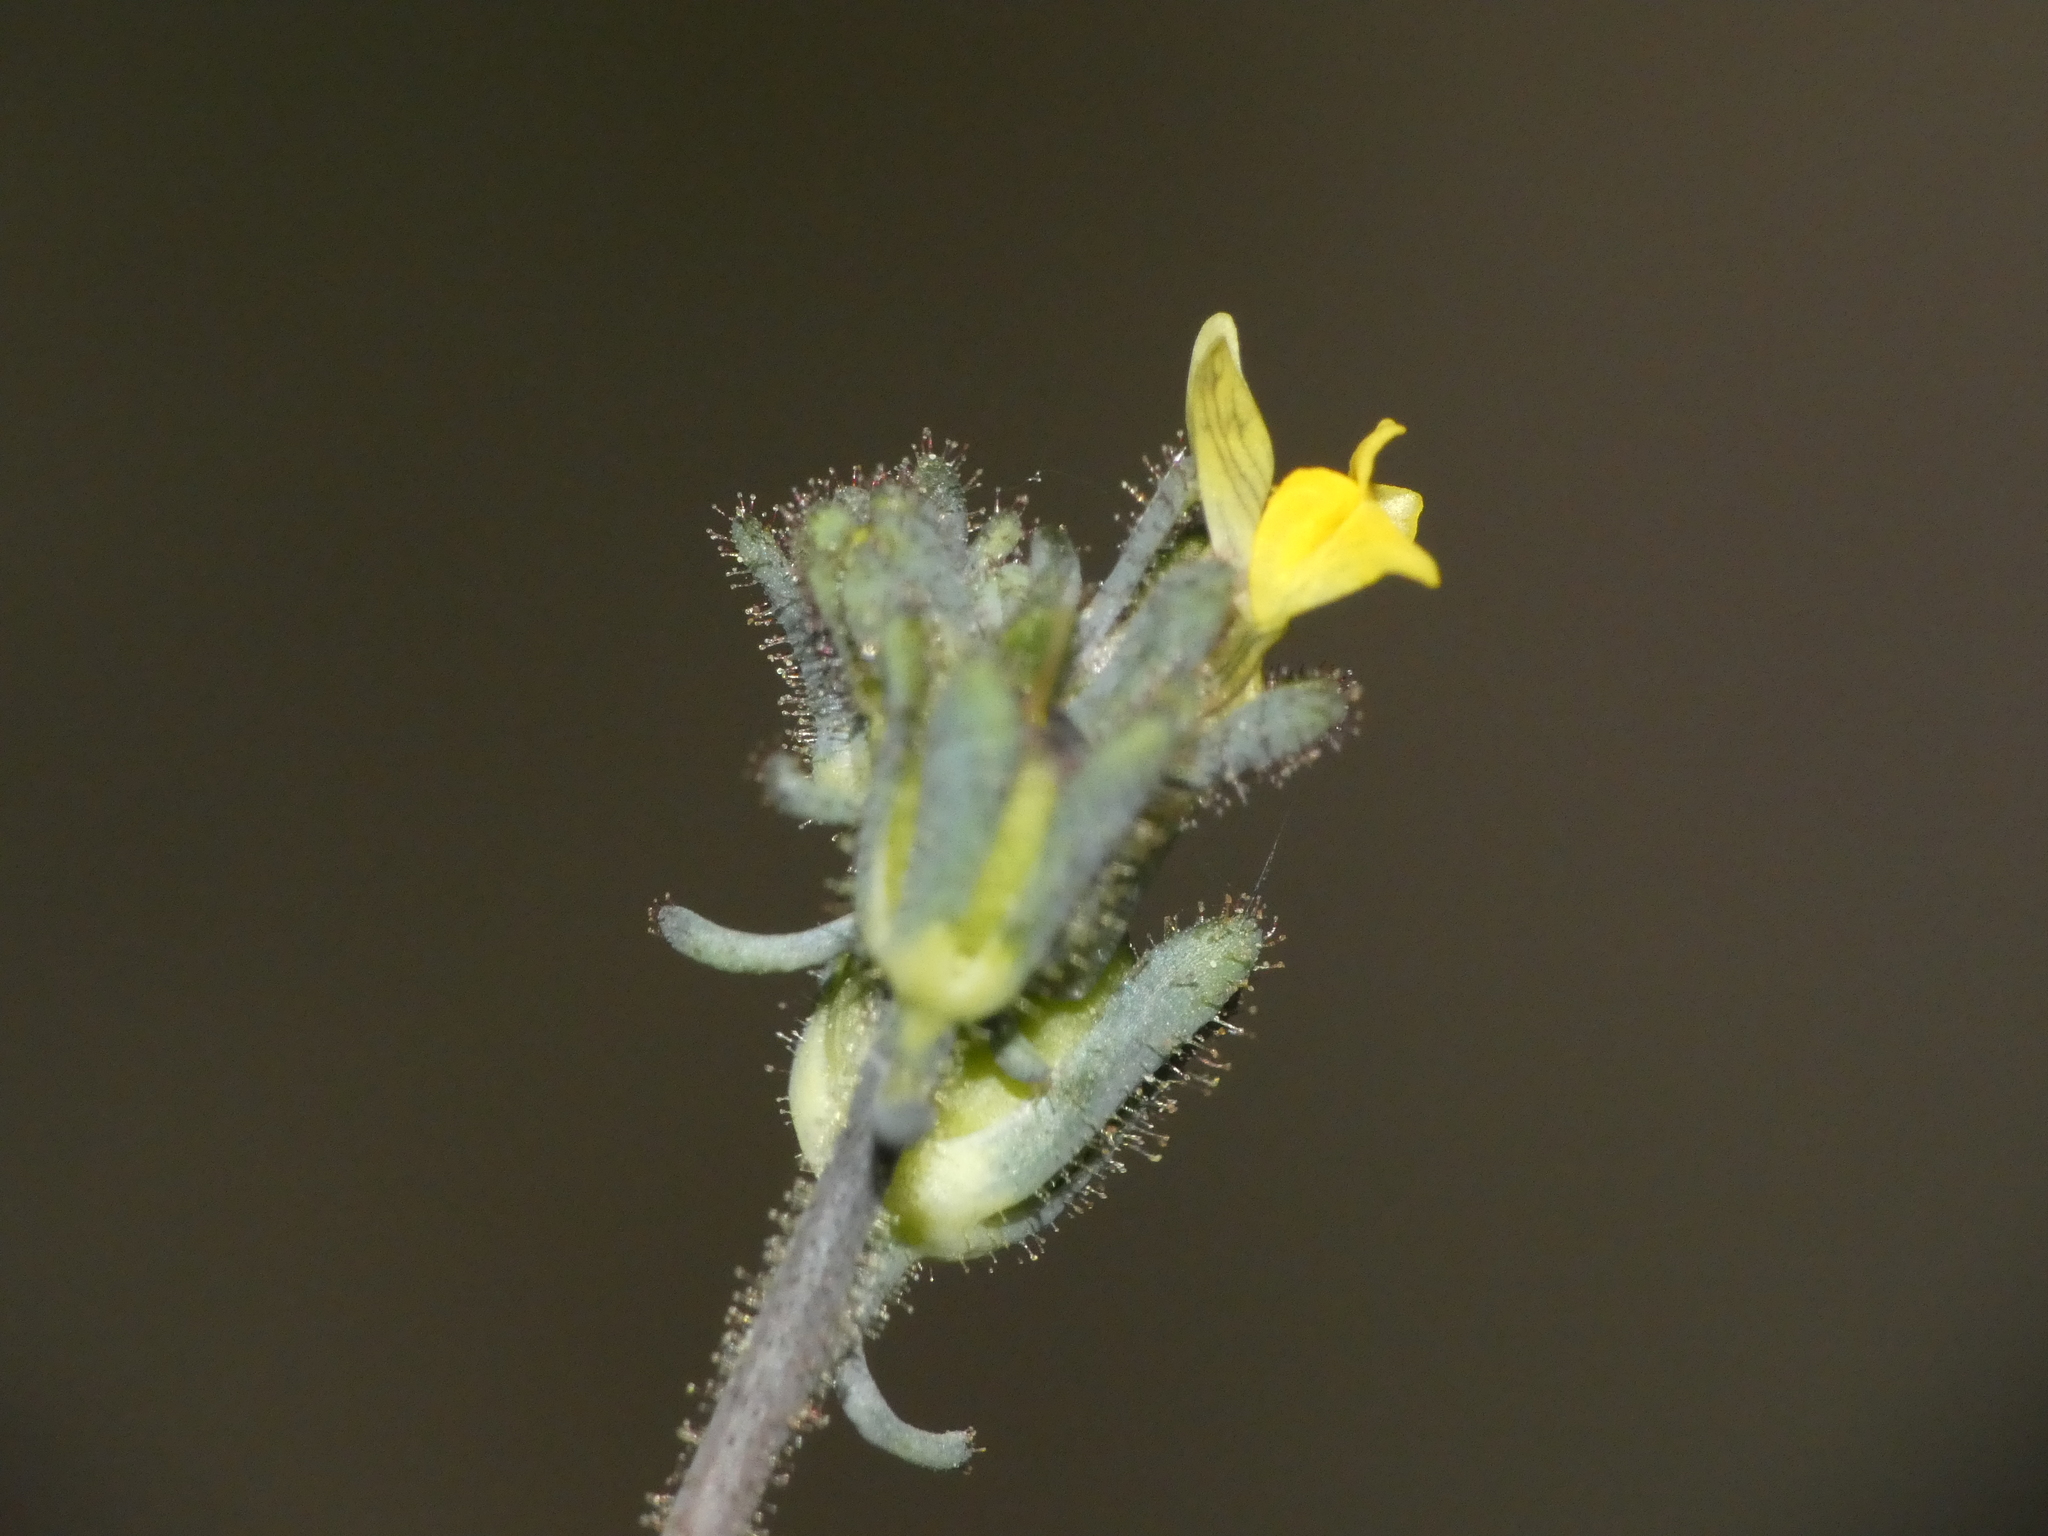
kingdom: Plantae
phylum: Tracheophyta
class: Magnoliopsida
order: Lamiales
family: Plantaginaceae
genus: Linaria
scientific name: Linaria simplex
